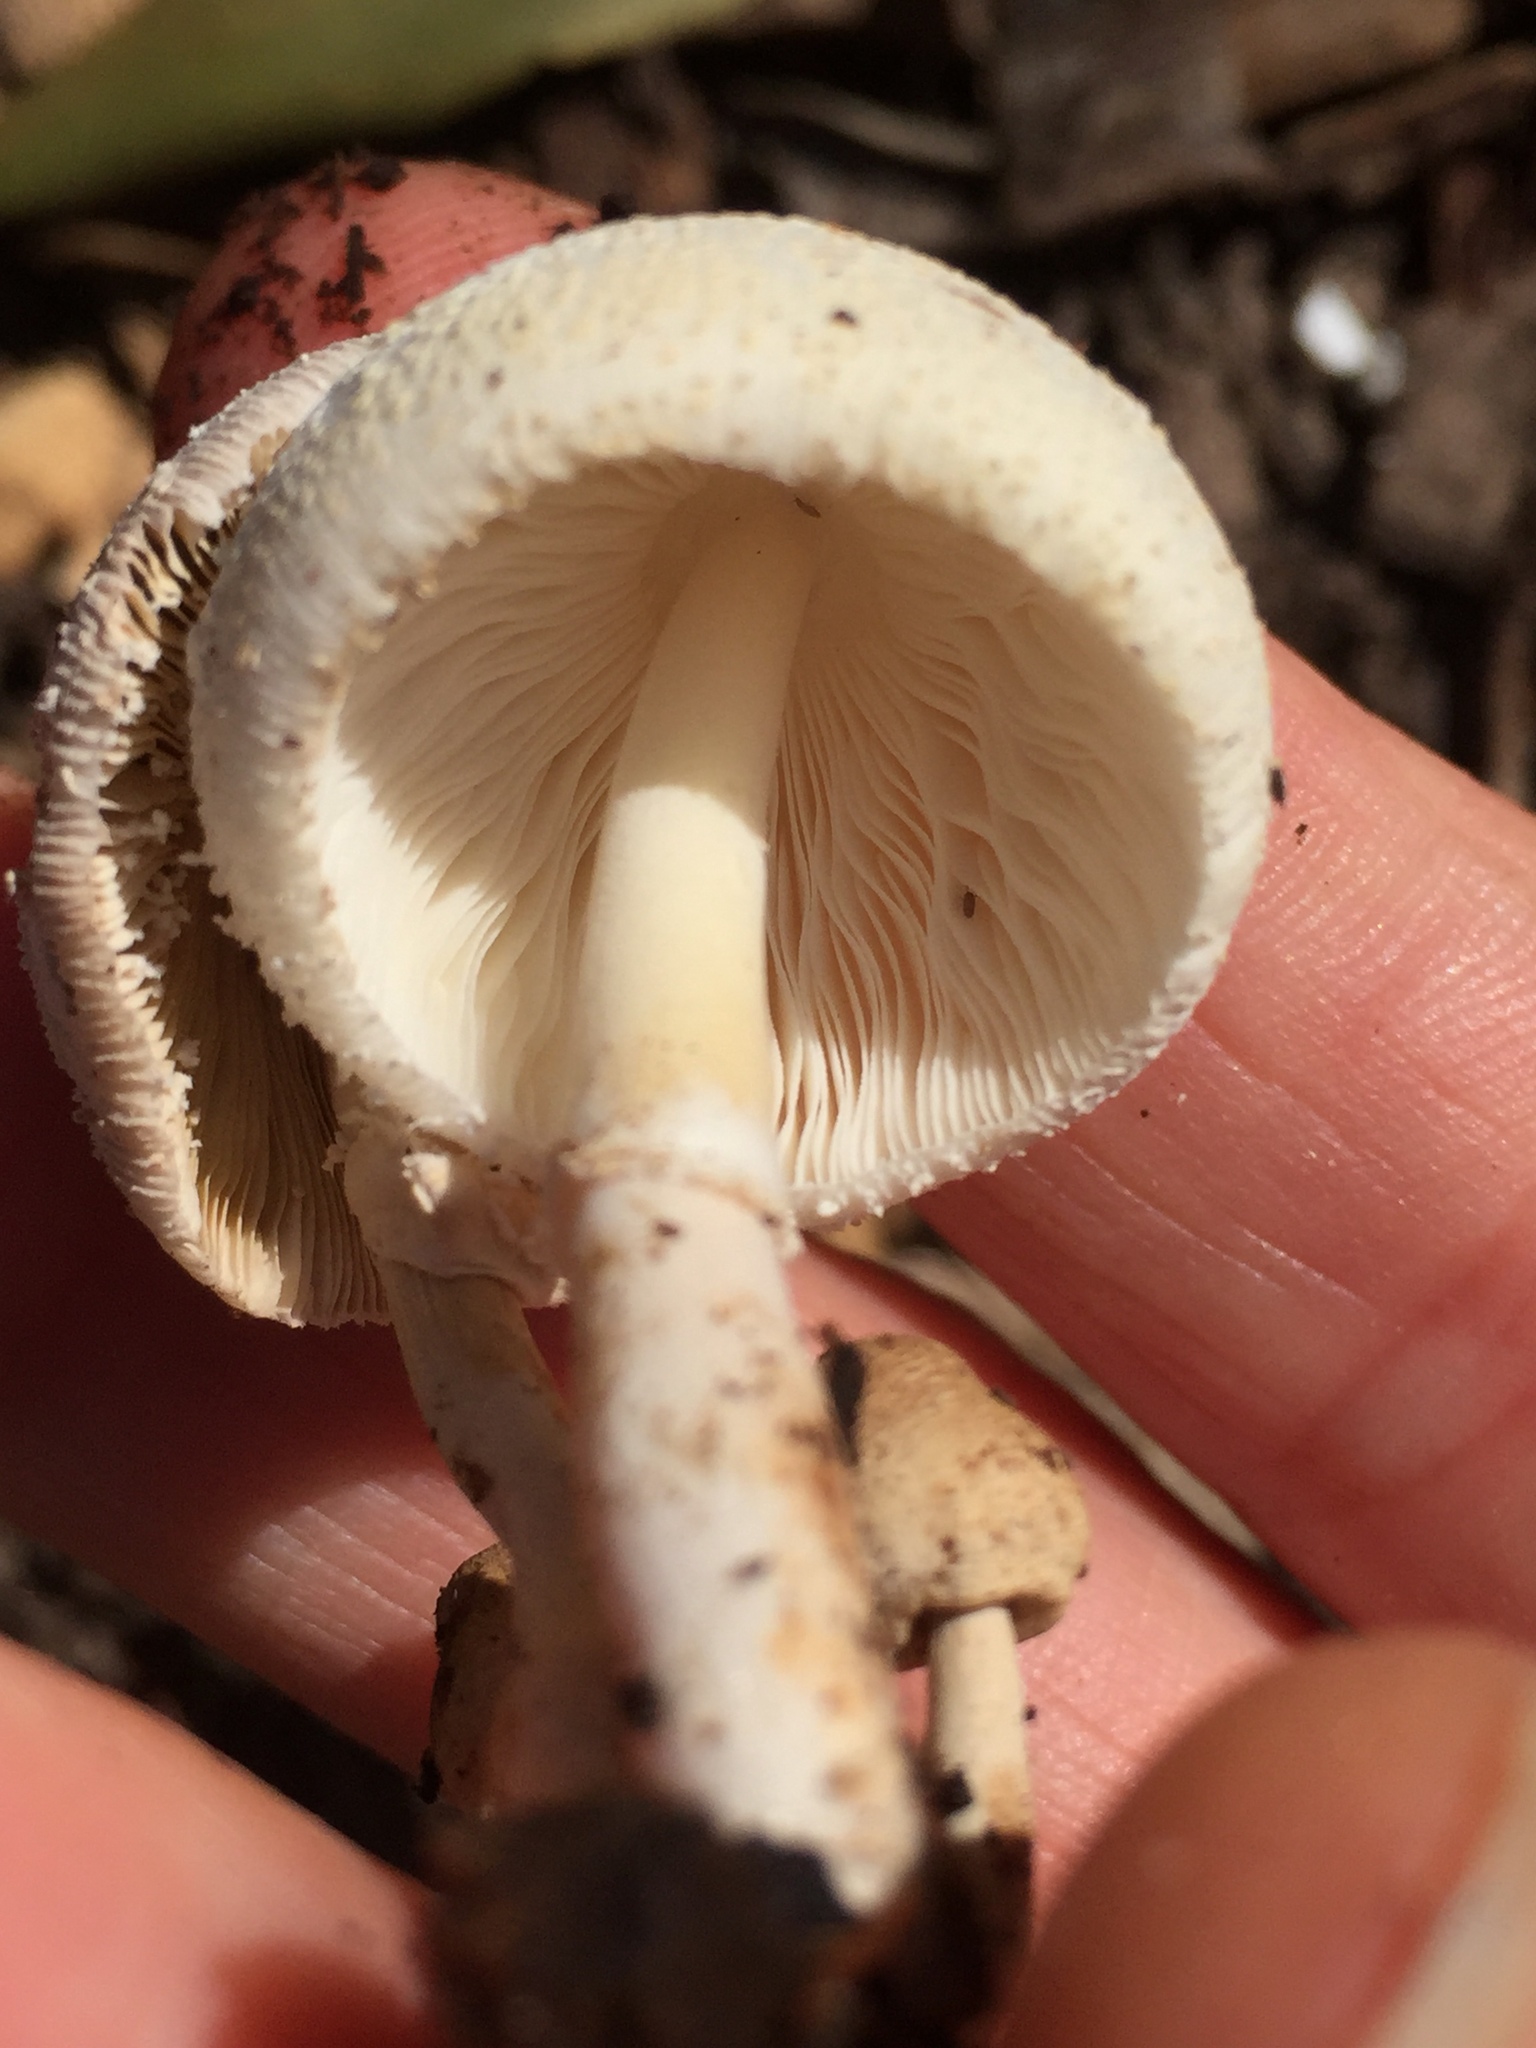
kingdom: Fungi
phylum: Basidiomycota
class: Agaricomycetes
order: Agaricales
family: Agaricaceae
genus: Leucocoprinus
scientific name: Leucocoprinus cepistipes
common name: Onion-stalk parasol
